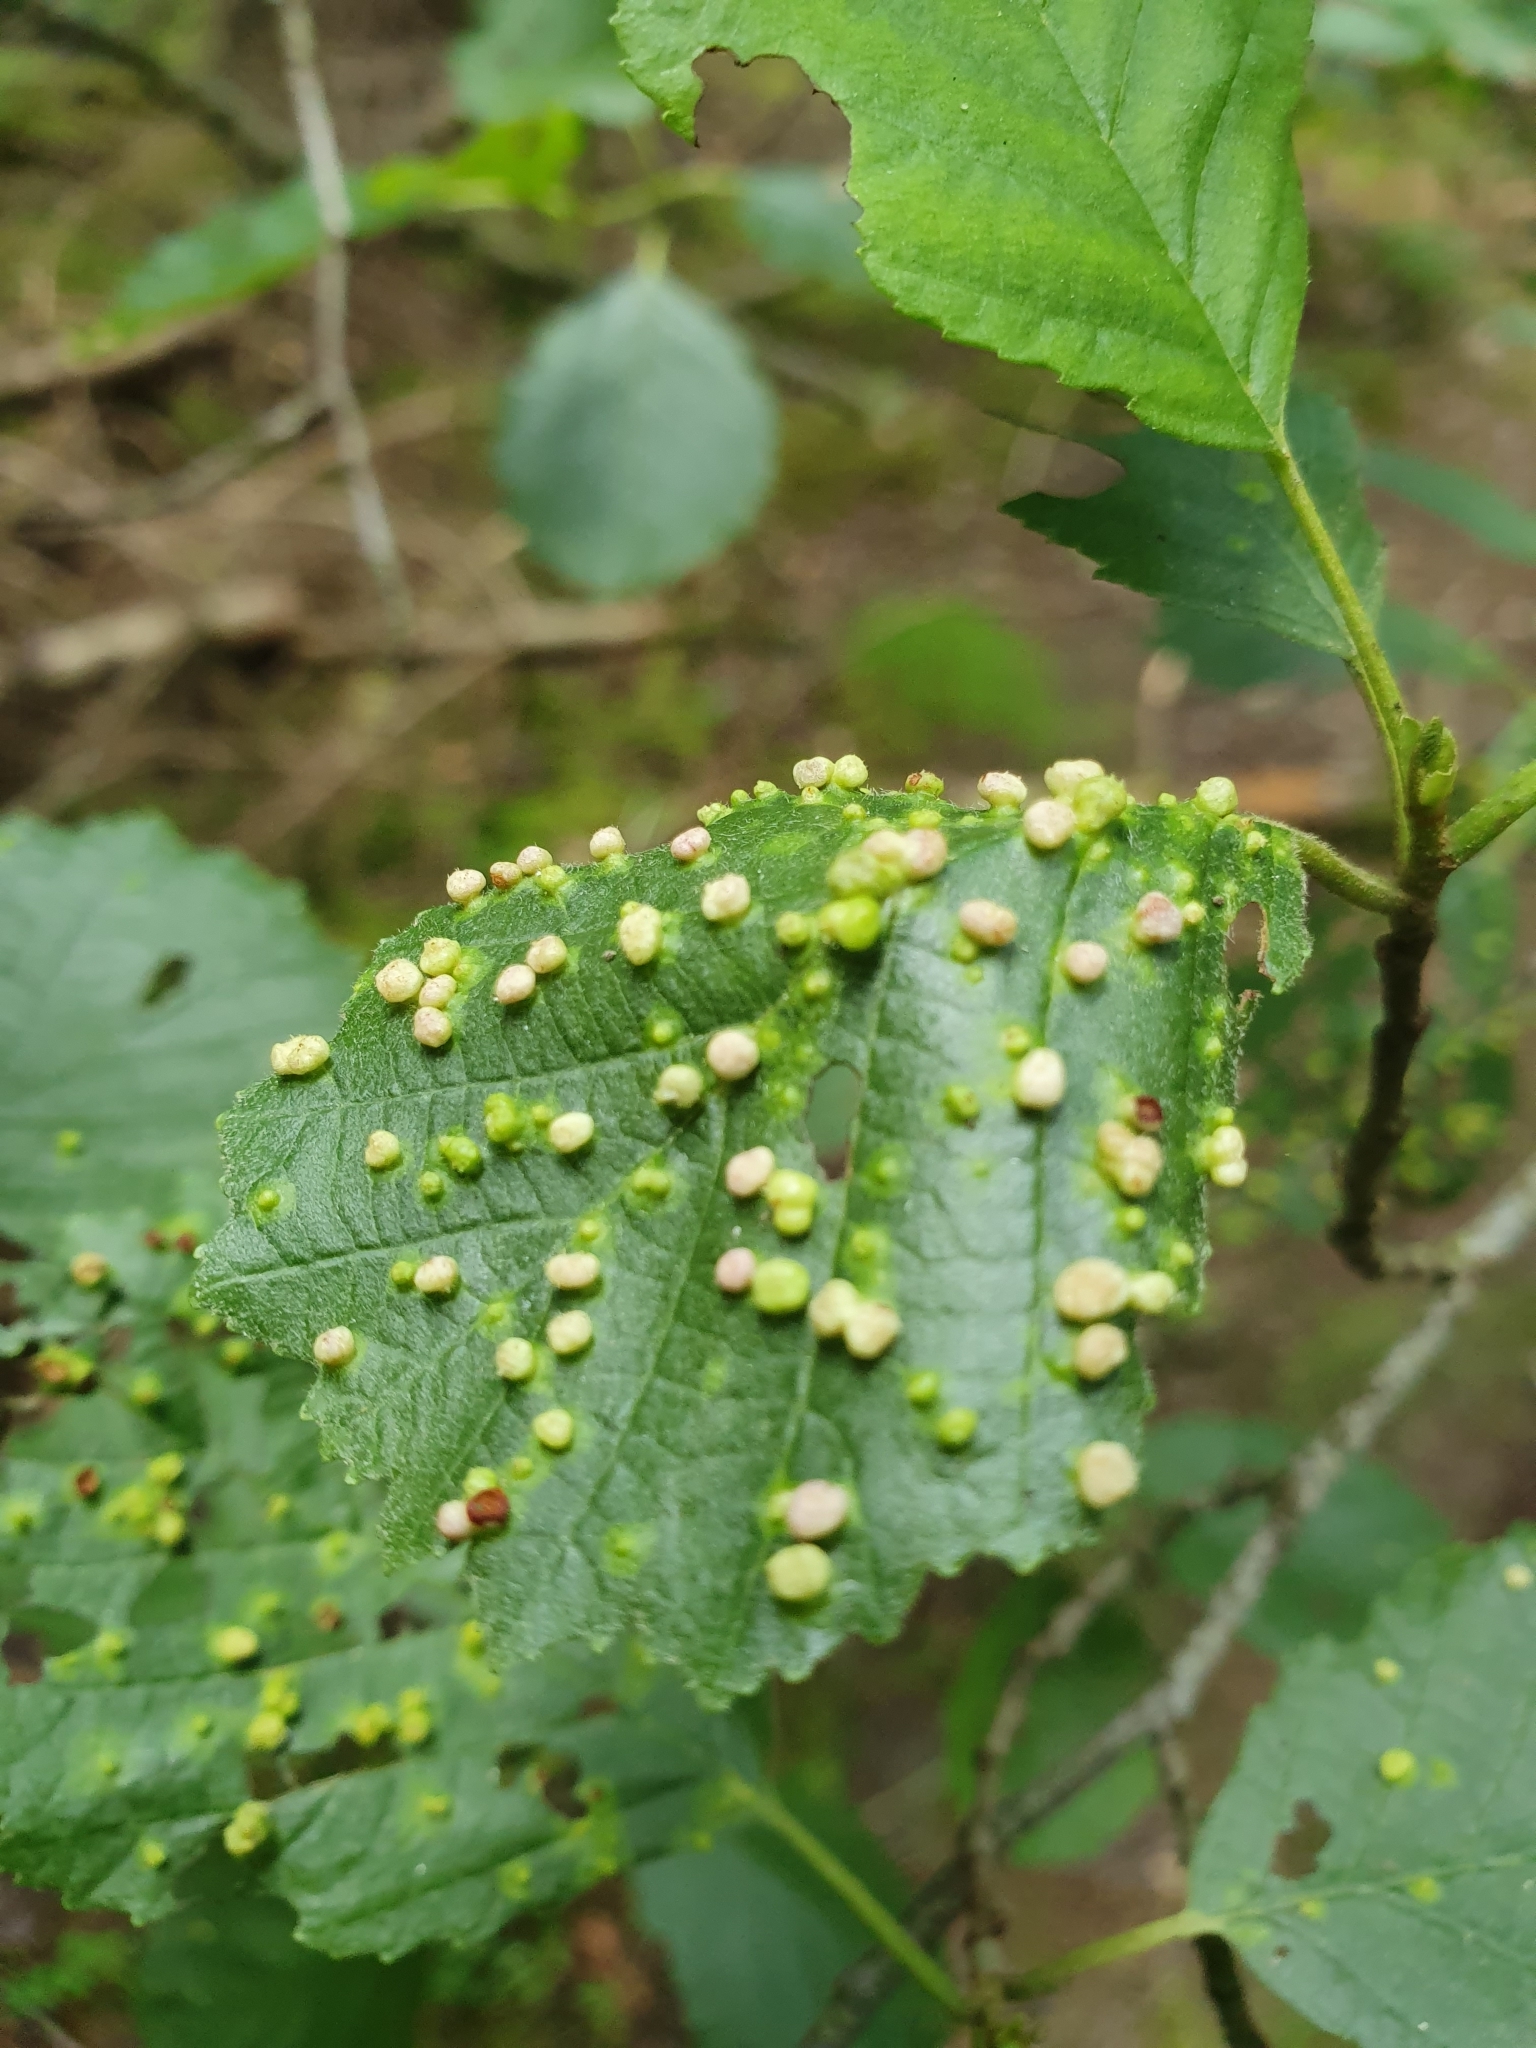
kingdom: Animalia
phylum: Arthropoda
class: Arachnida
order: Trombidiformes
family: Eriophyidae
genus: Eriophyes
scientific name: Eriophyes laevis
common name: Alder leaf gall mite
